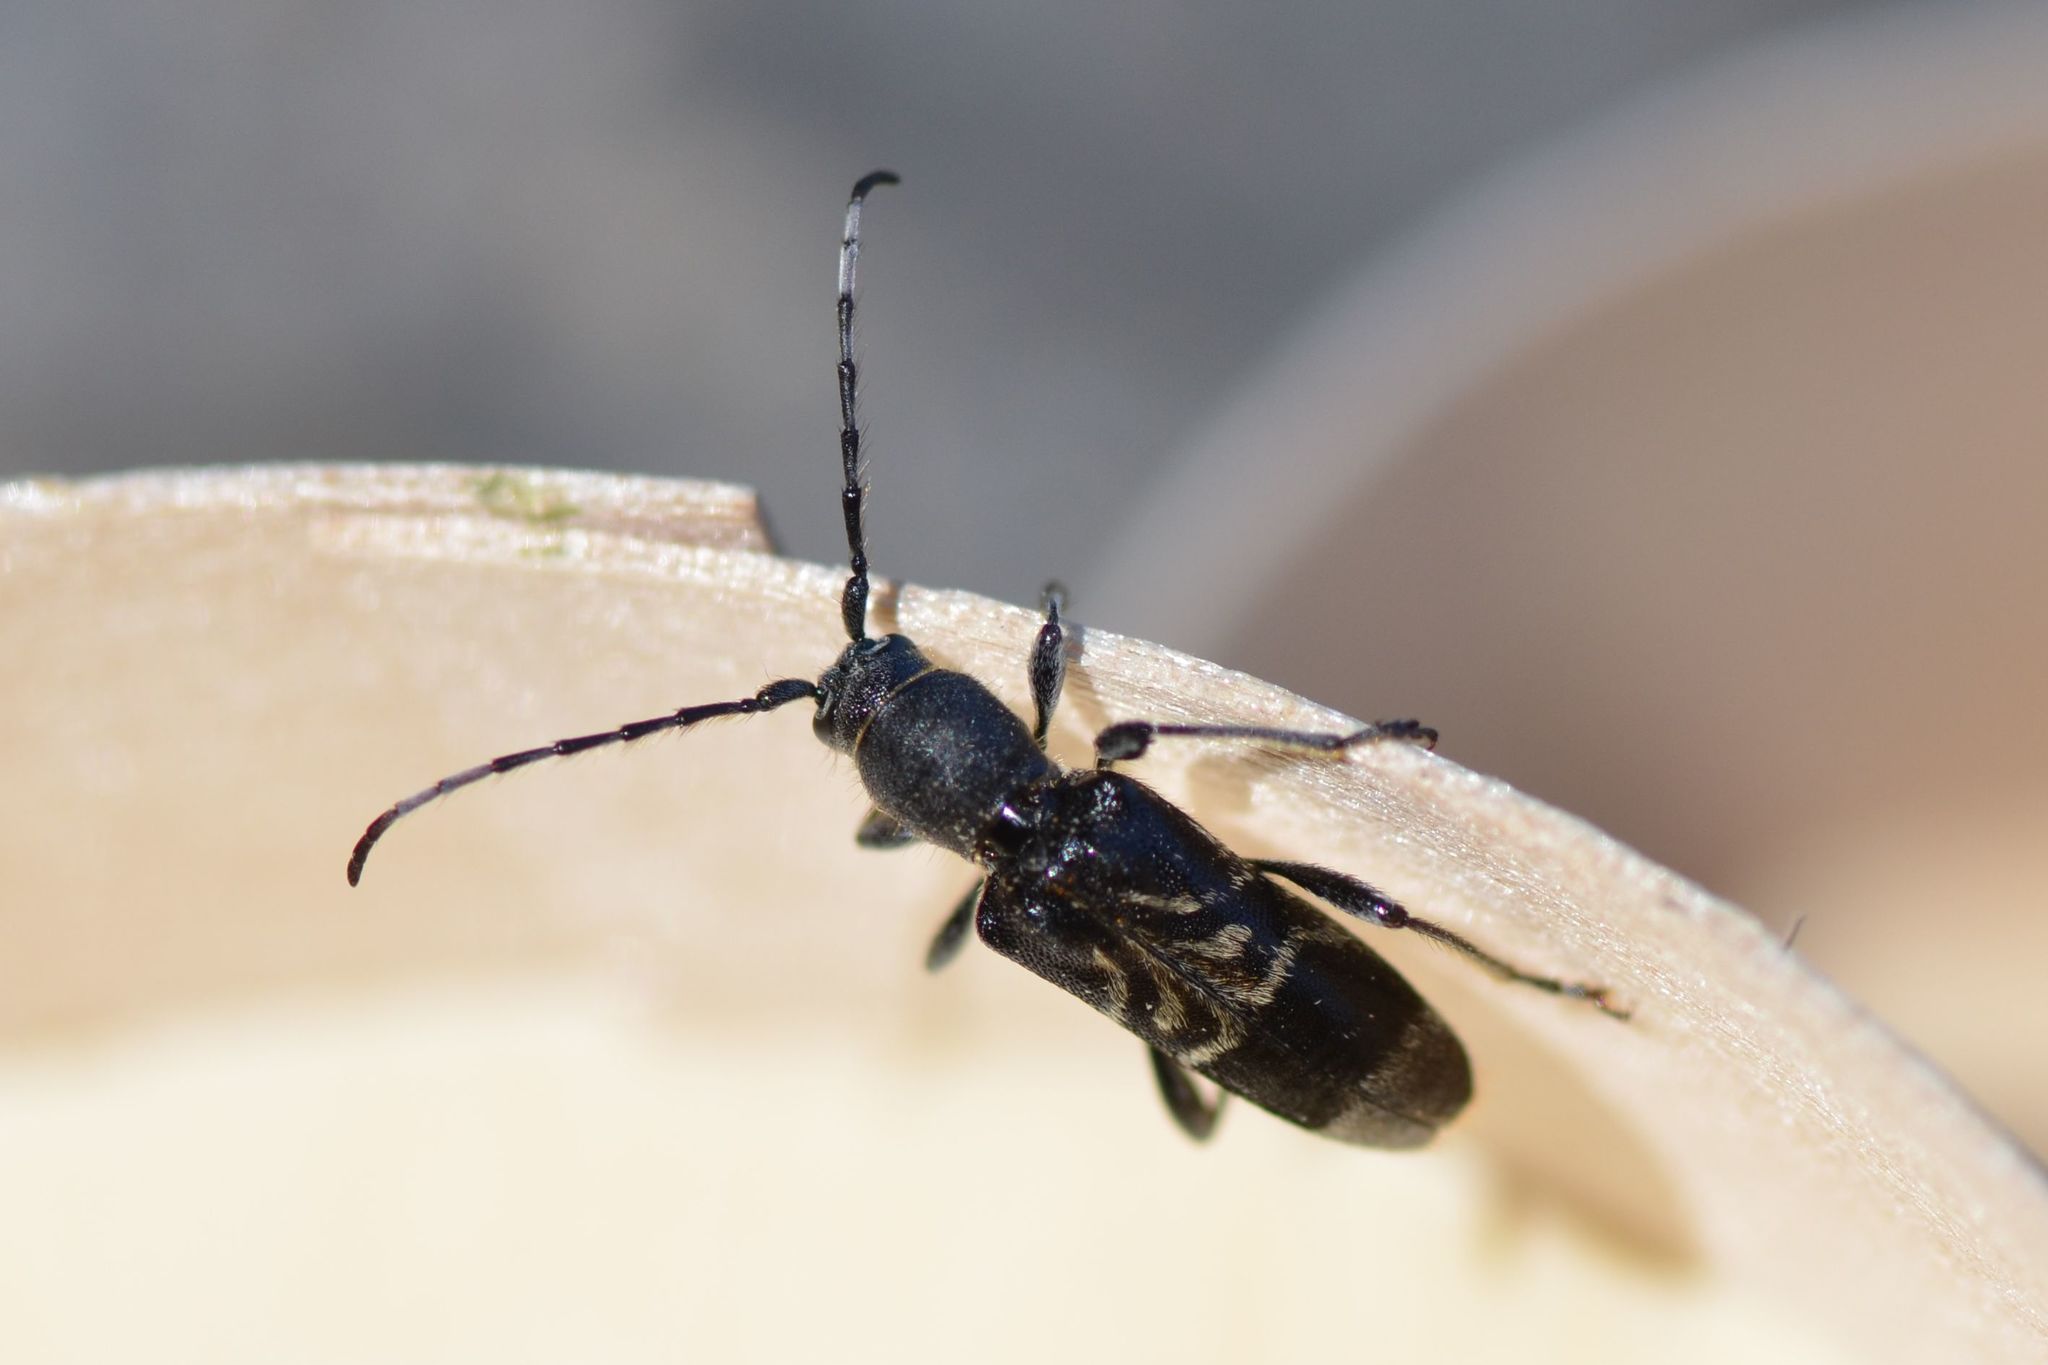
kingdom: Animalia
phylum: Arthropoda
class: Insecta
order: Coleoptera
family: Cerambycidae
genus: Anaglyptus
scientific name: Anaglyptus mysticus
